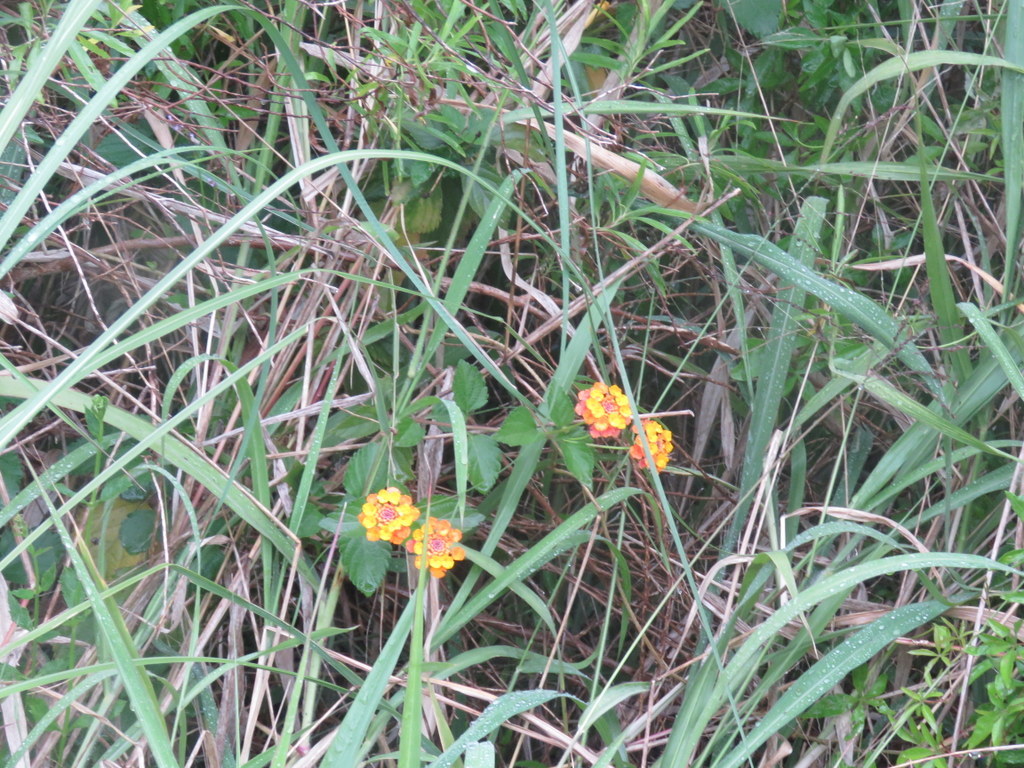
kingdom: Plantae
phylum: Tracheophyta
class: Magnoliopsida
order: Lamiales
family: Verbenaceae
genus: Lantana
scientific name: Lantana camara
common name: Lantana
